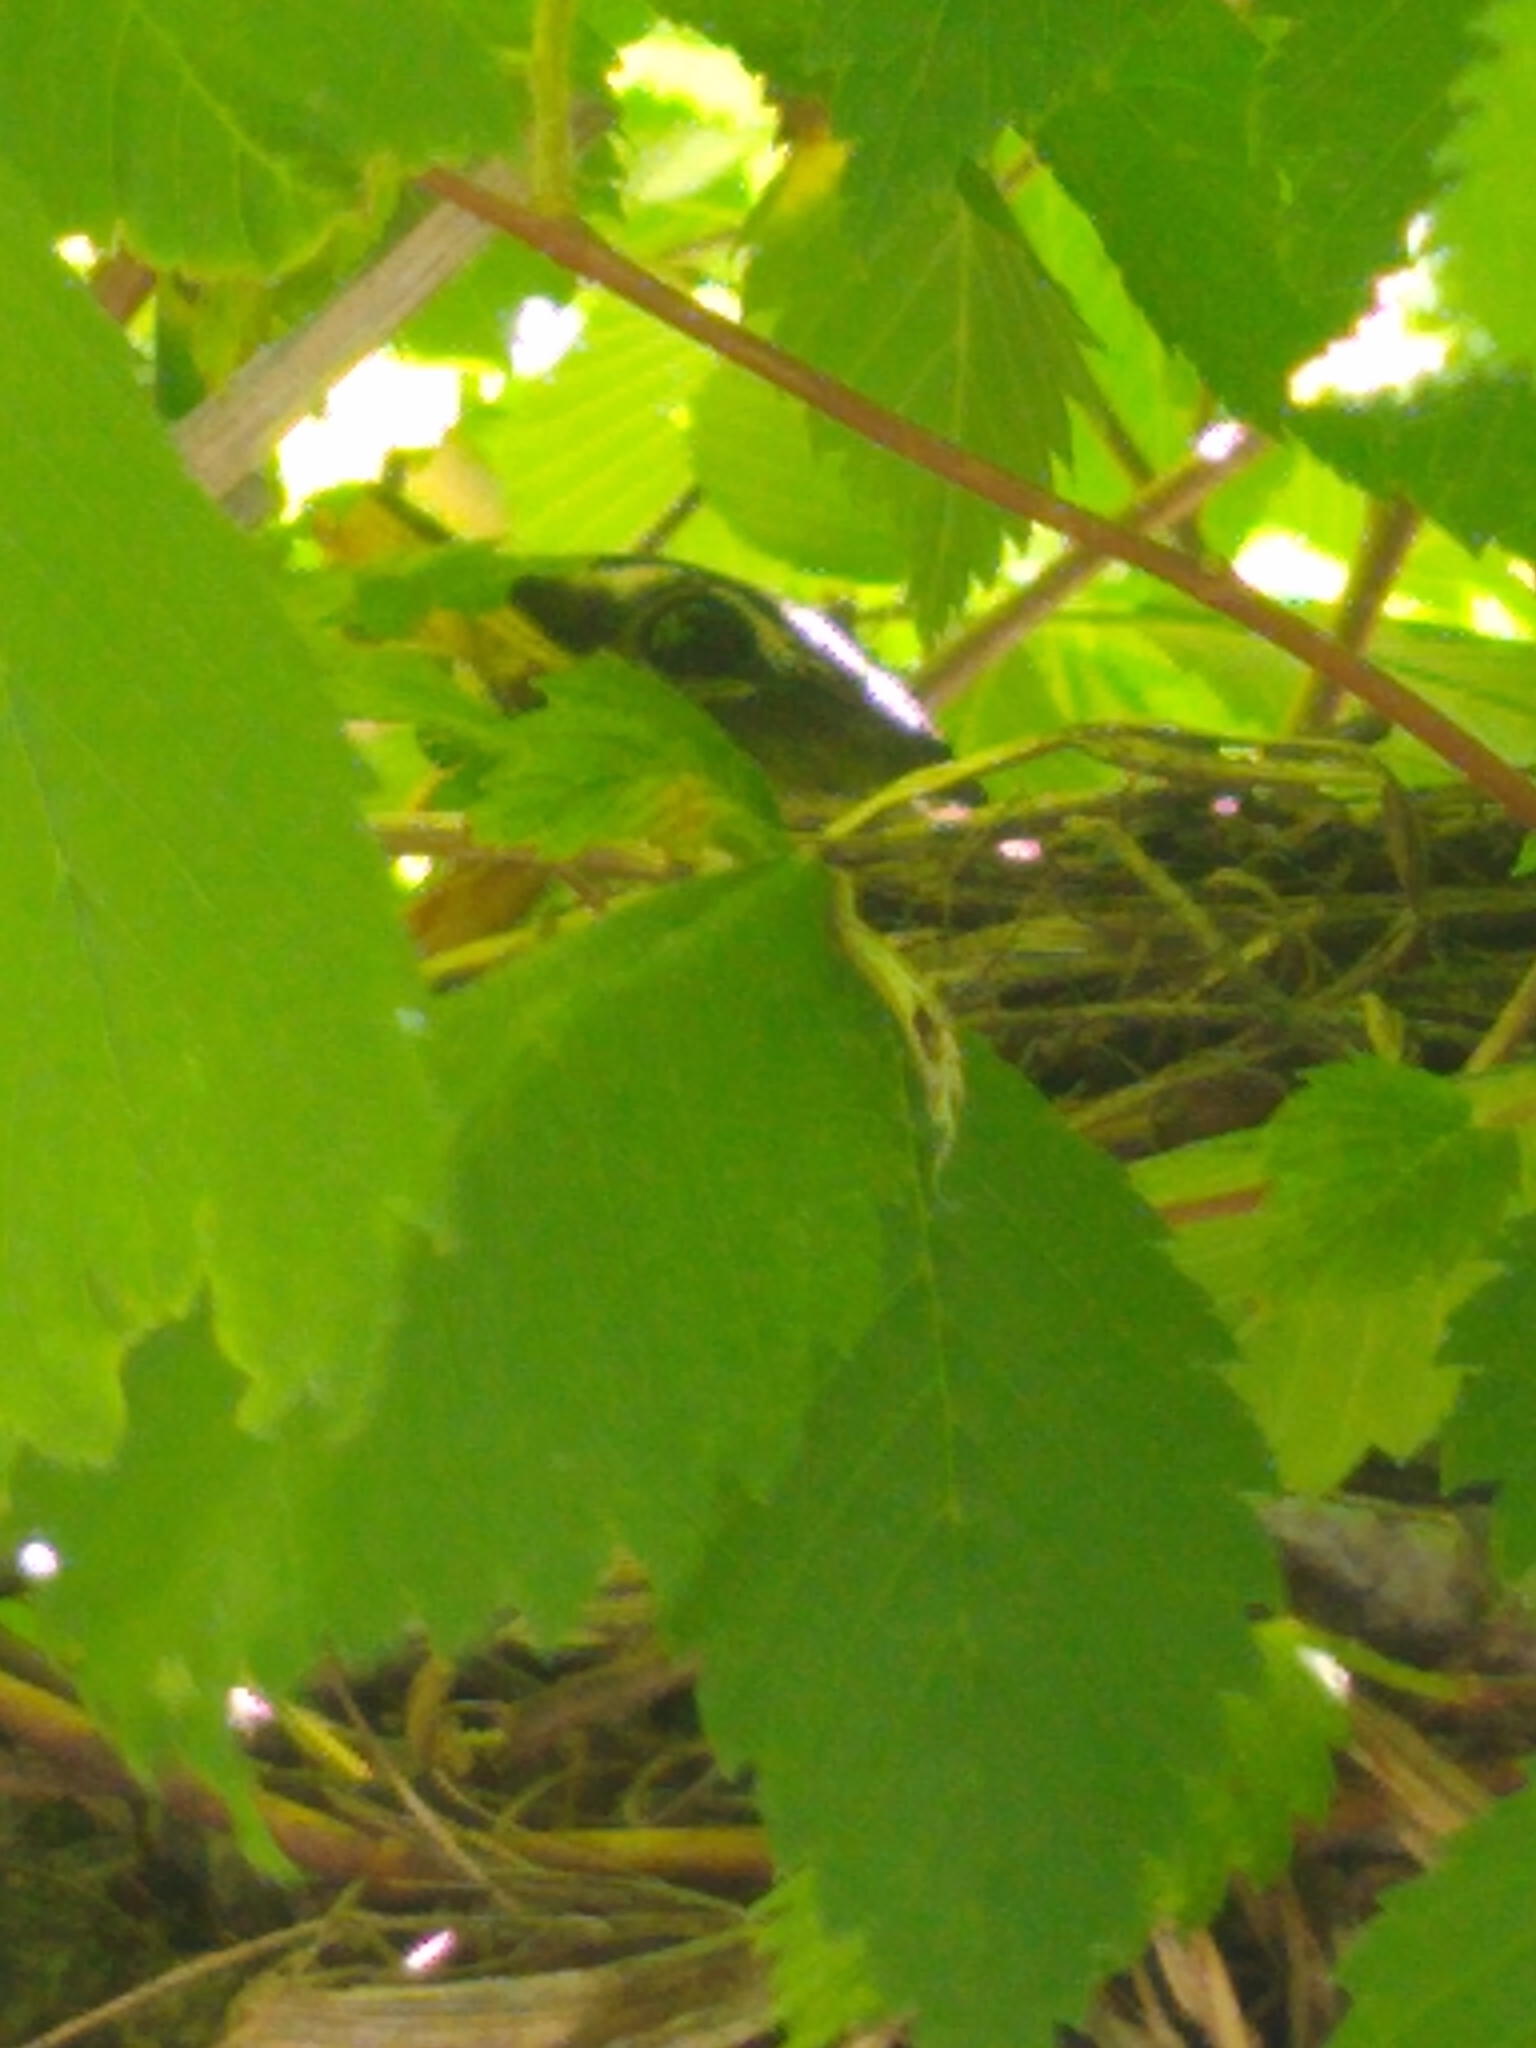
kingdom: Animalia
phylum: Chordata
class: Aves
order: Passeriformes
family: Turdidae
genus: Turdus
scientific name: Turdus migratorius
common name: American robin
